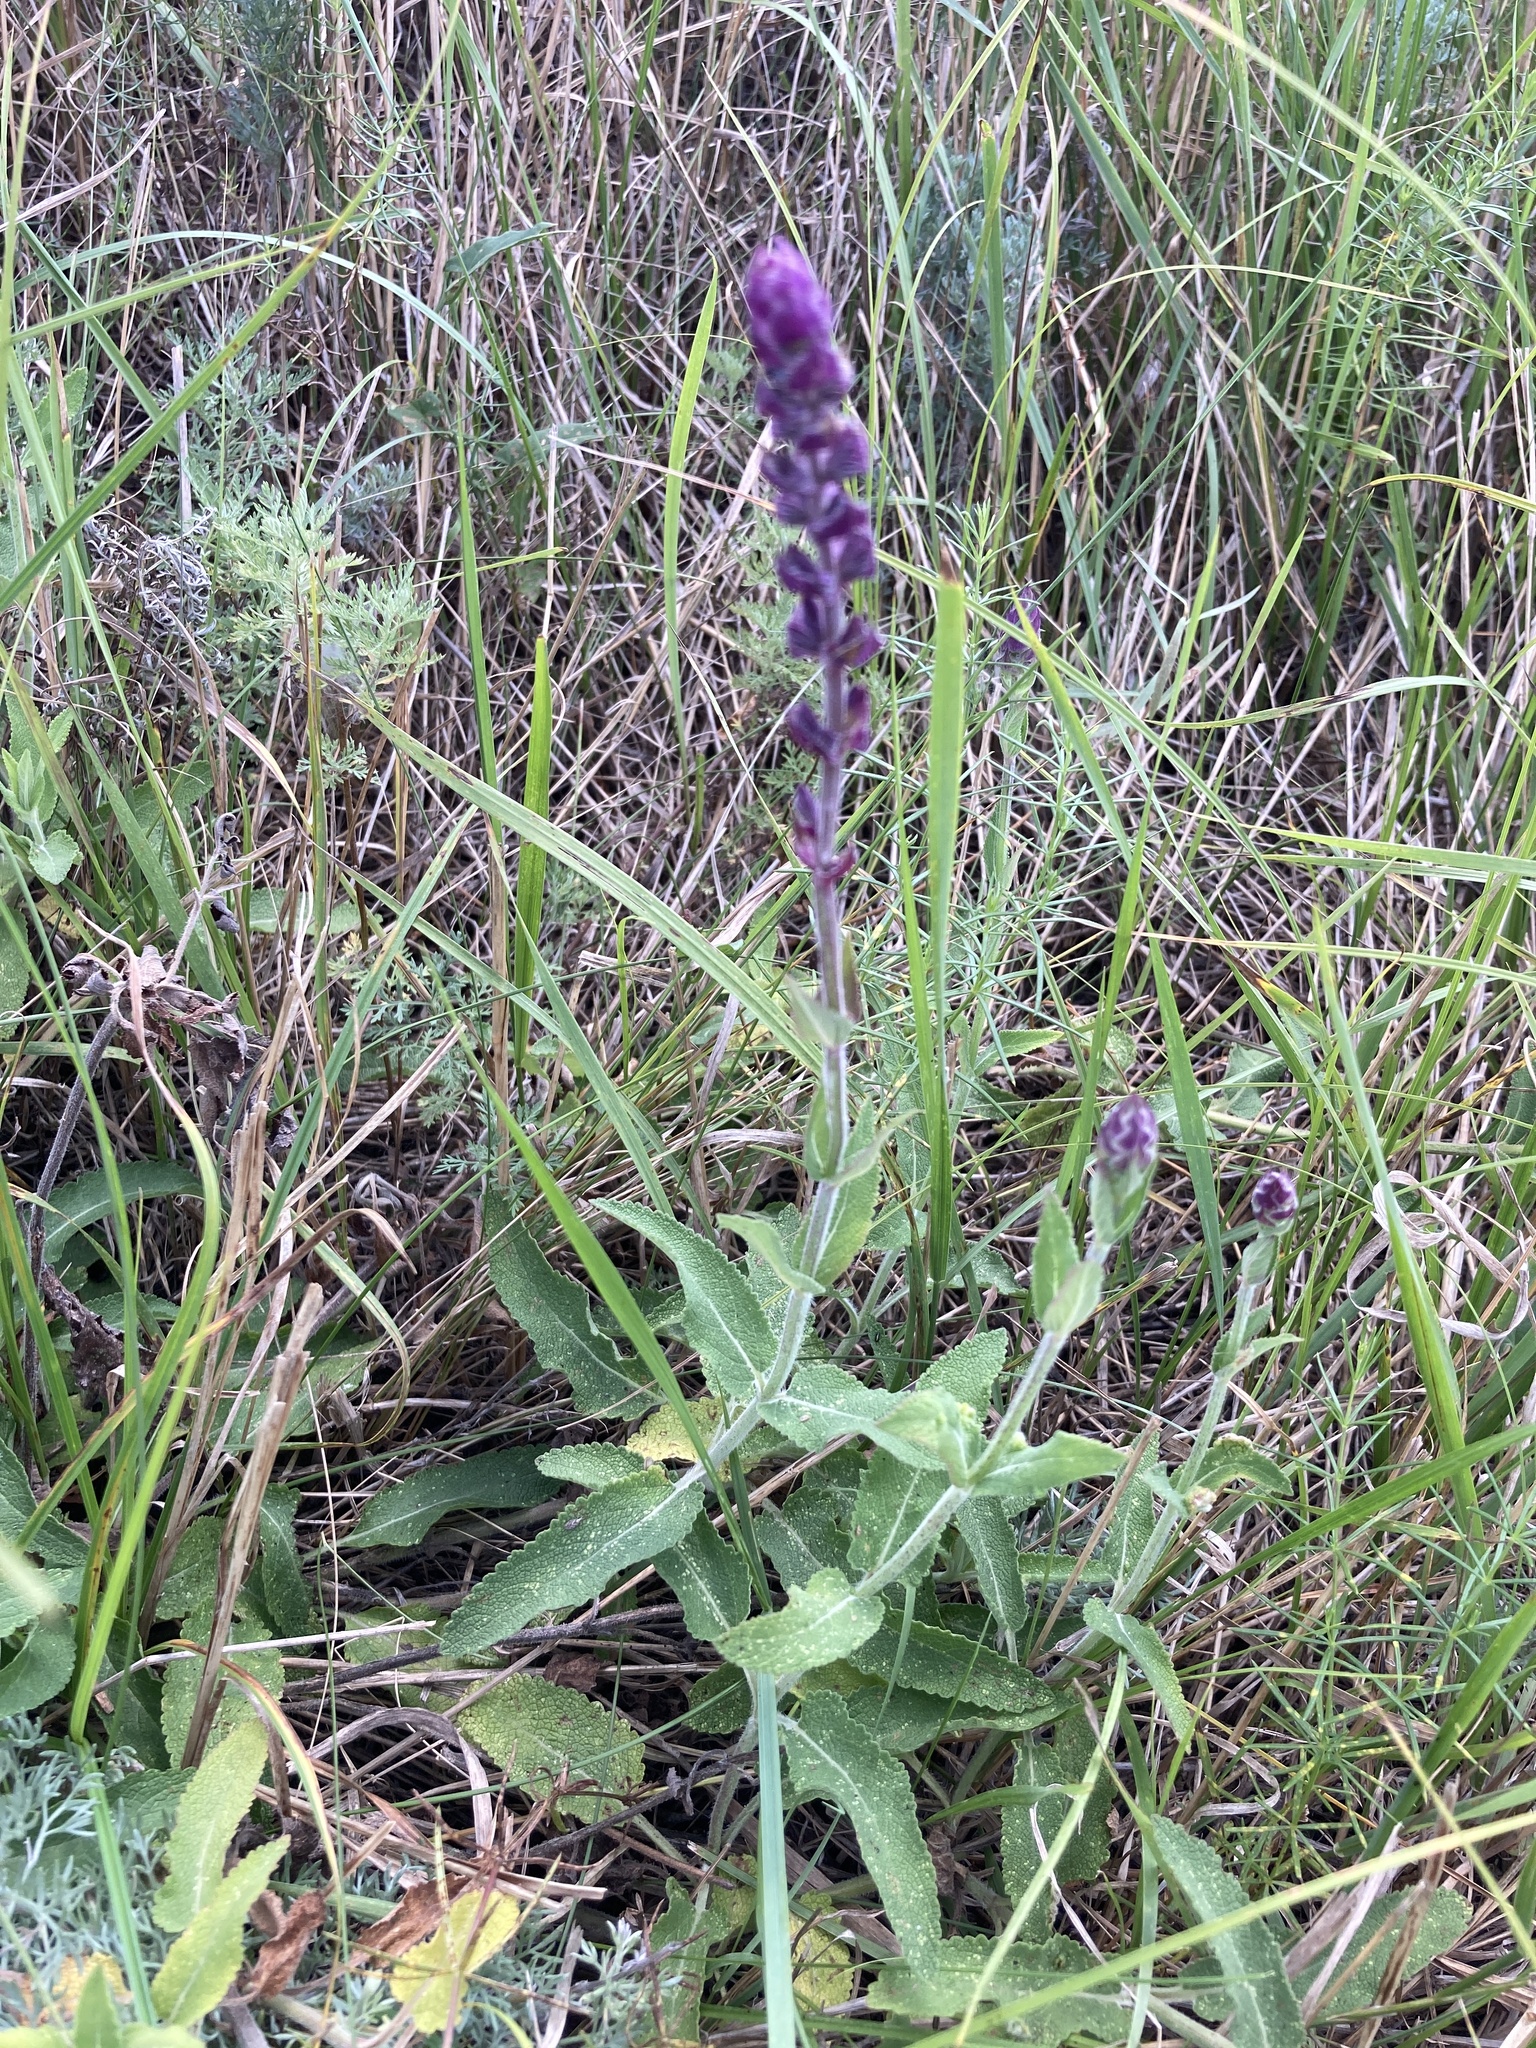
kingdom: Plantae
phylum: Tracheophyta
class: Magnoliopsida
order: Lamiales
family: Lamiaceae
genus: Salvia
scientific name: Salvia nemorosa
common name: Balkan clary
